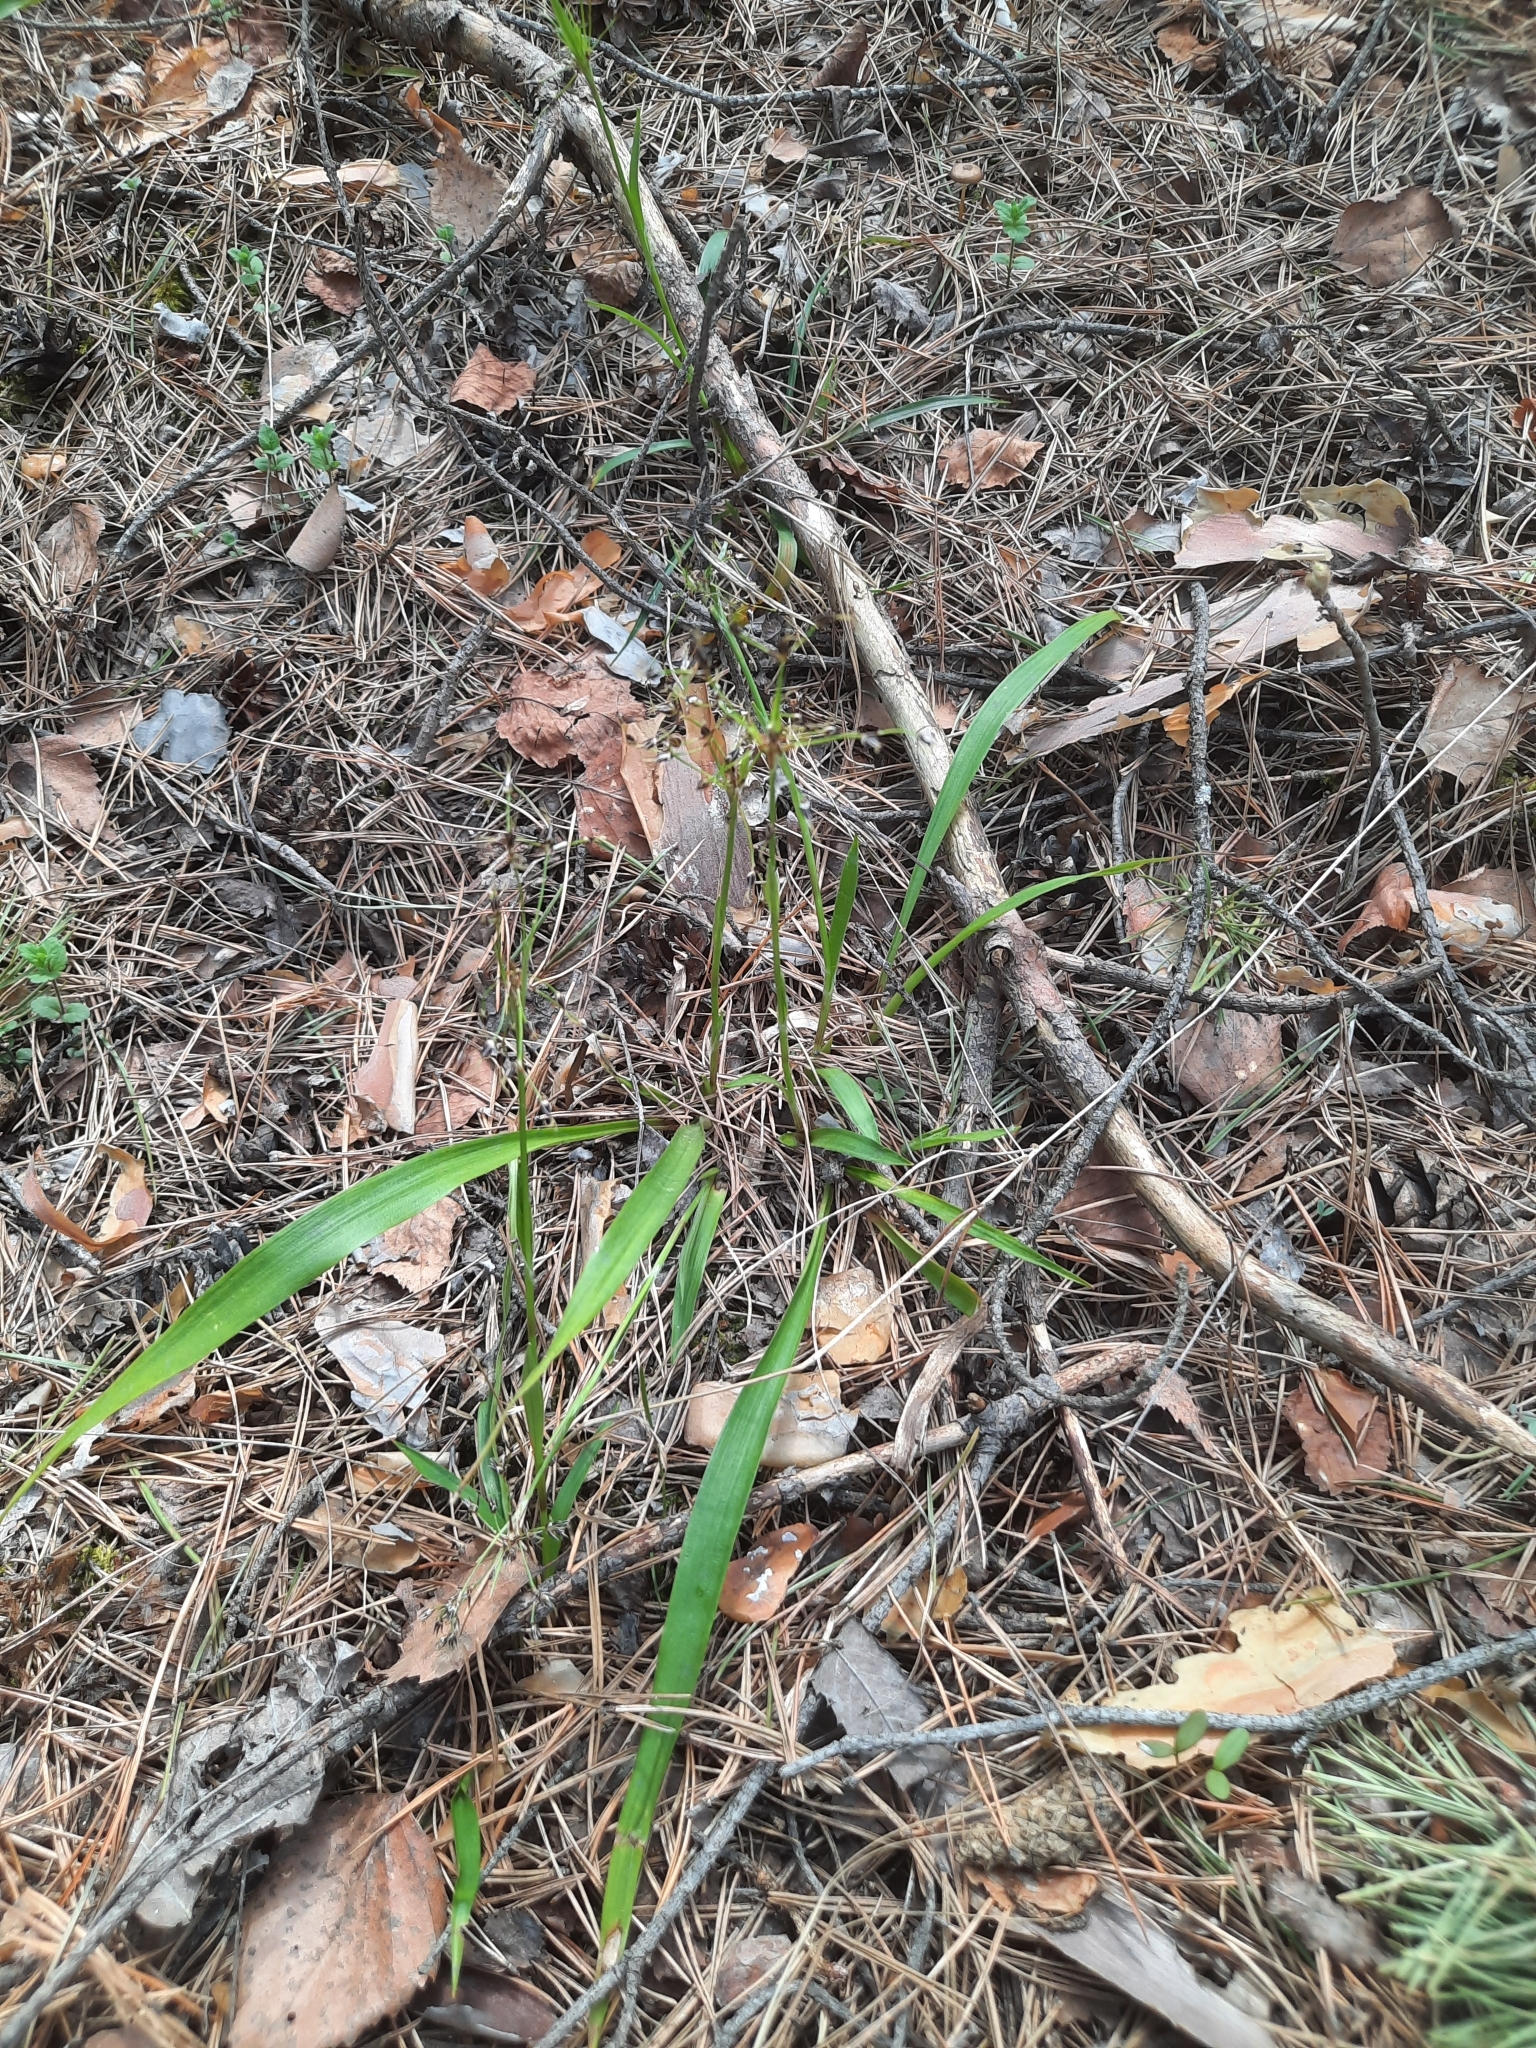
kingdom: Plantae
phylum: Tracheophyta
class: Liliopsida
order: Poales
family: Juncaceae
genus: Luzula
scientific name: Luzula pilosa
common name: Hairy wood-rush
